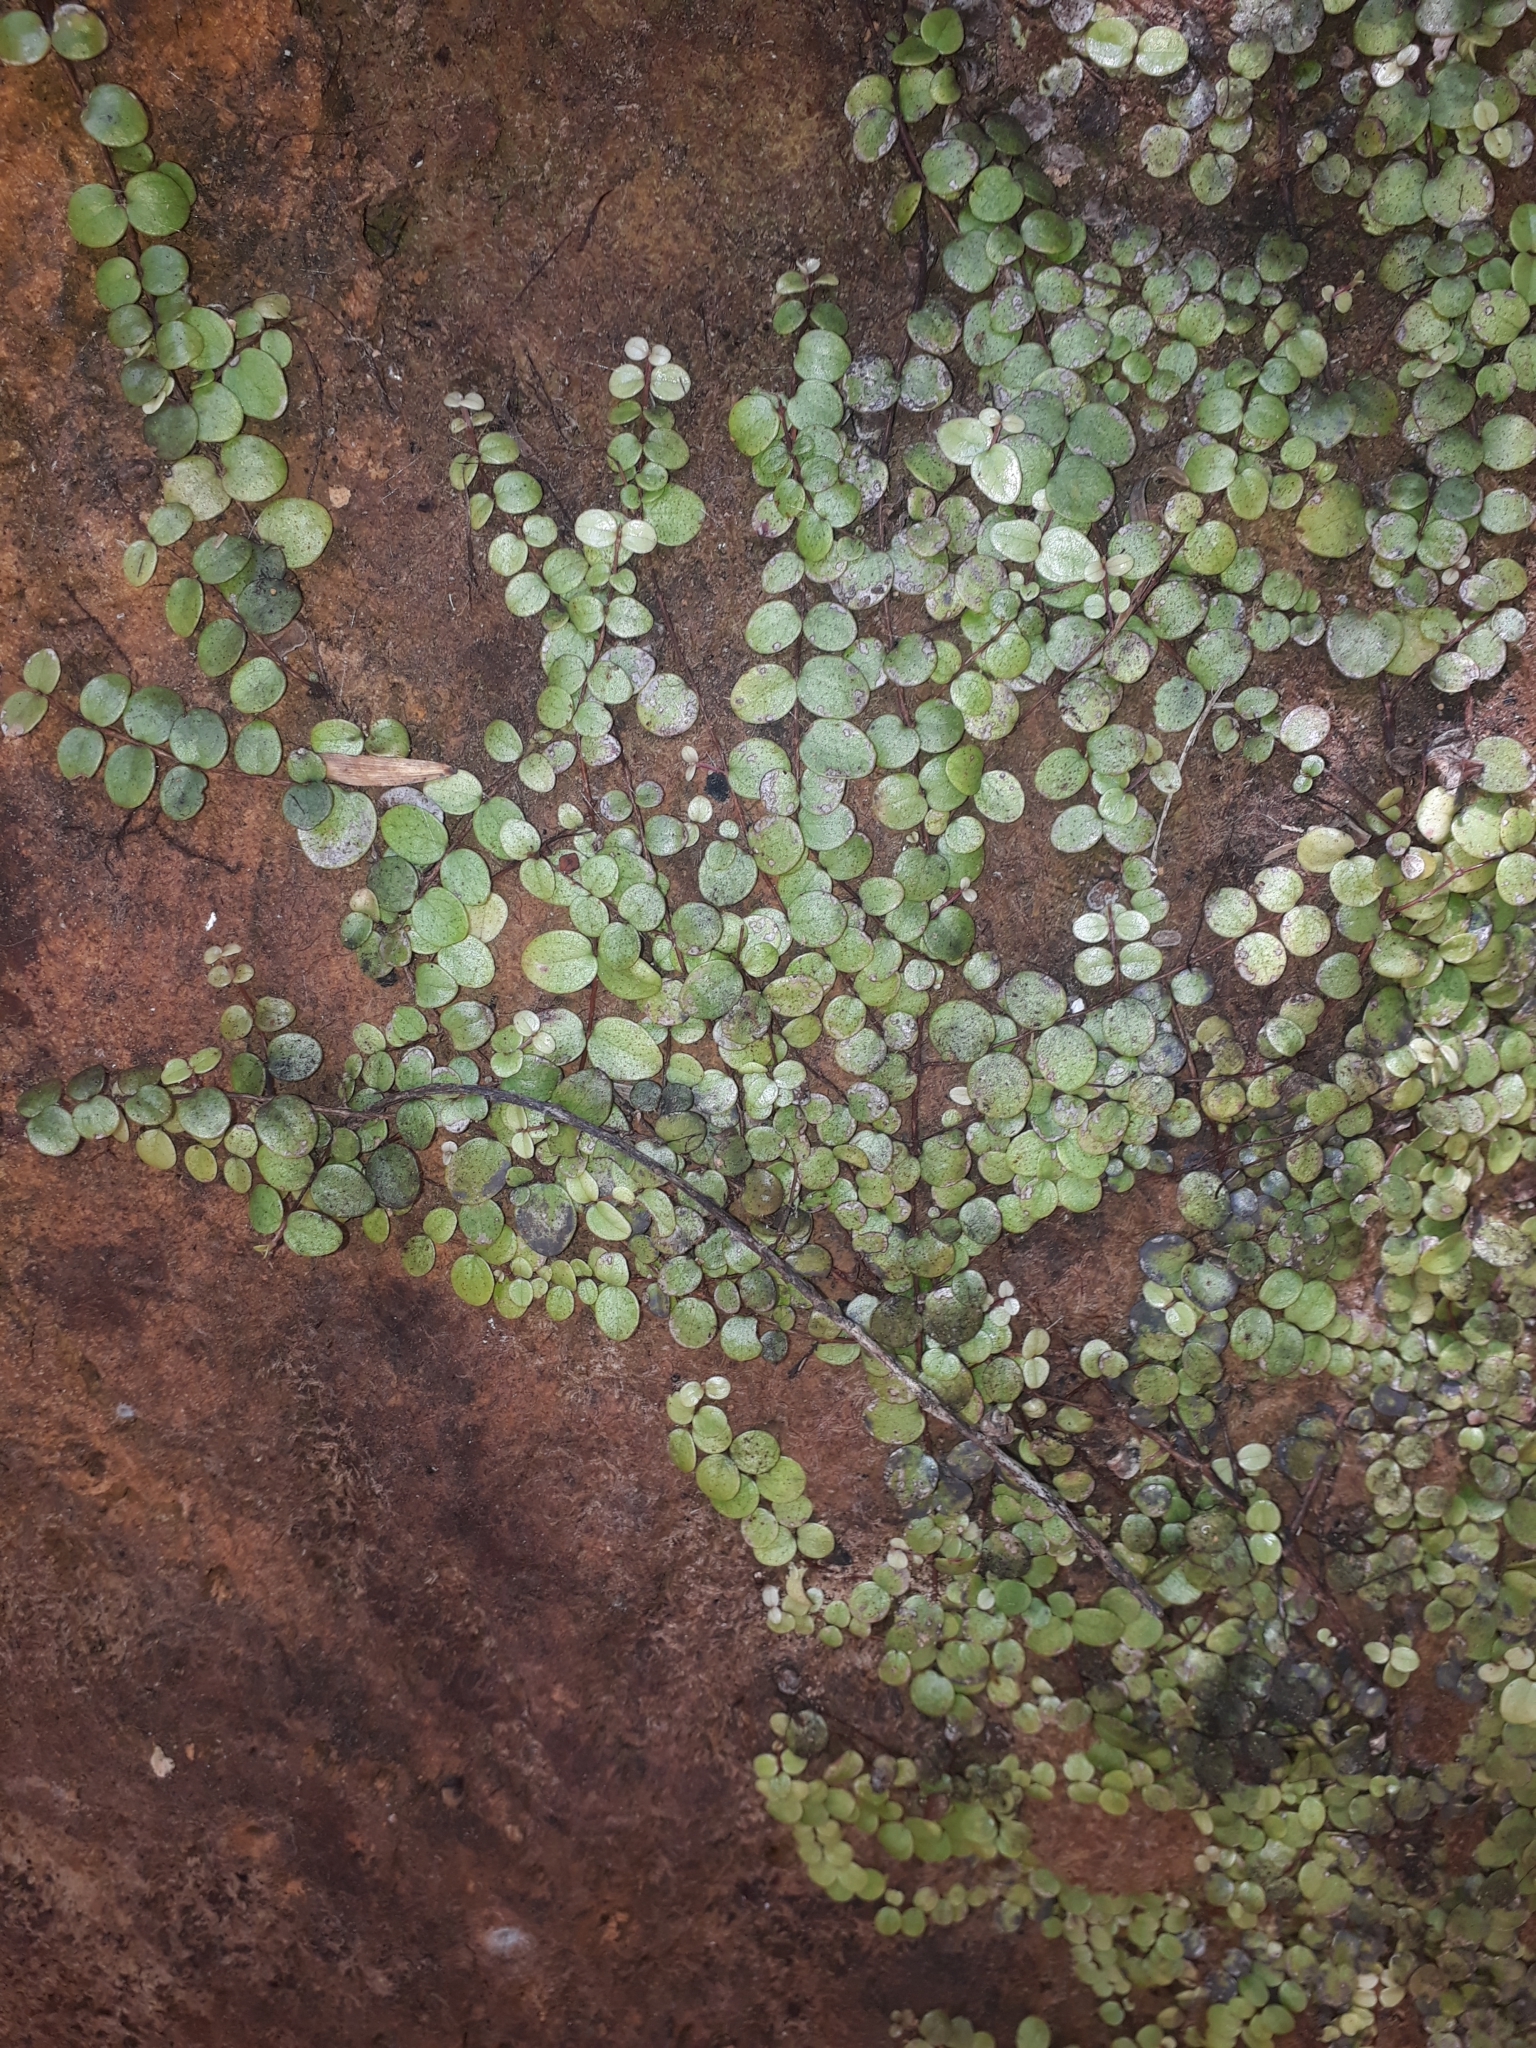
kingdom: Plantae
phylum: Tracheophyta
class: Magnoliopsida
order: Myrtales
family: Myrtaceae
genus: Metrosideros
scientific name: Metrosideros perforata
